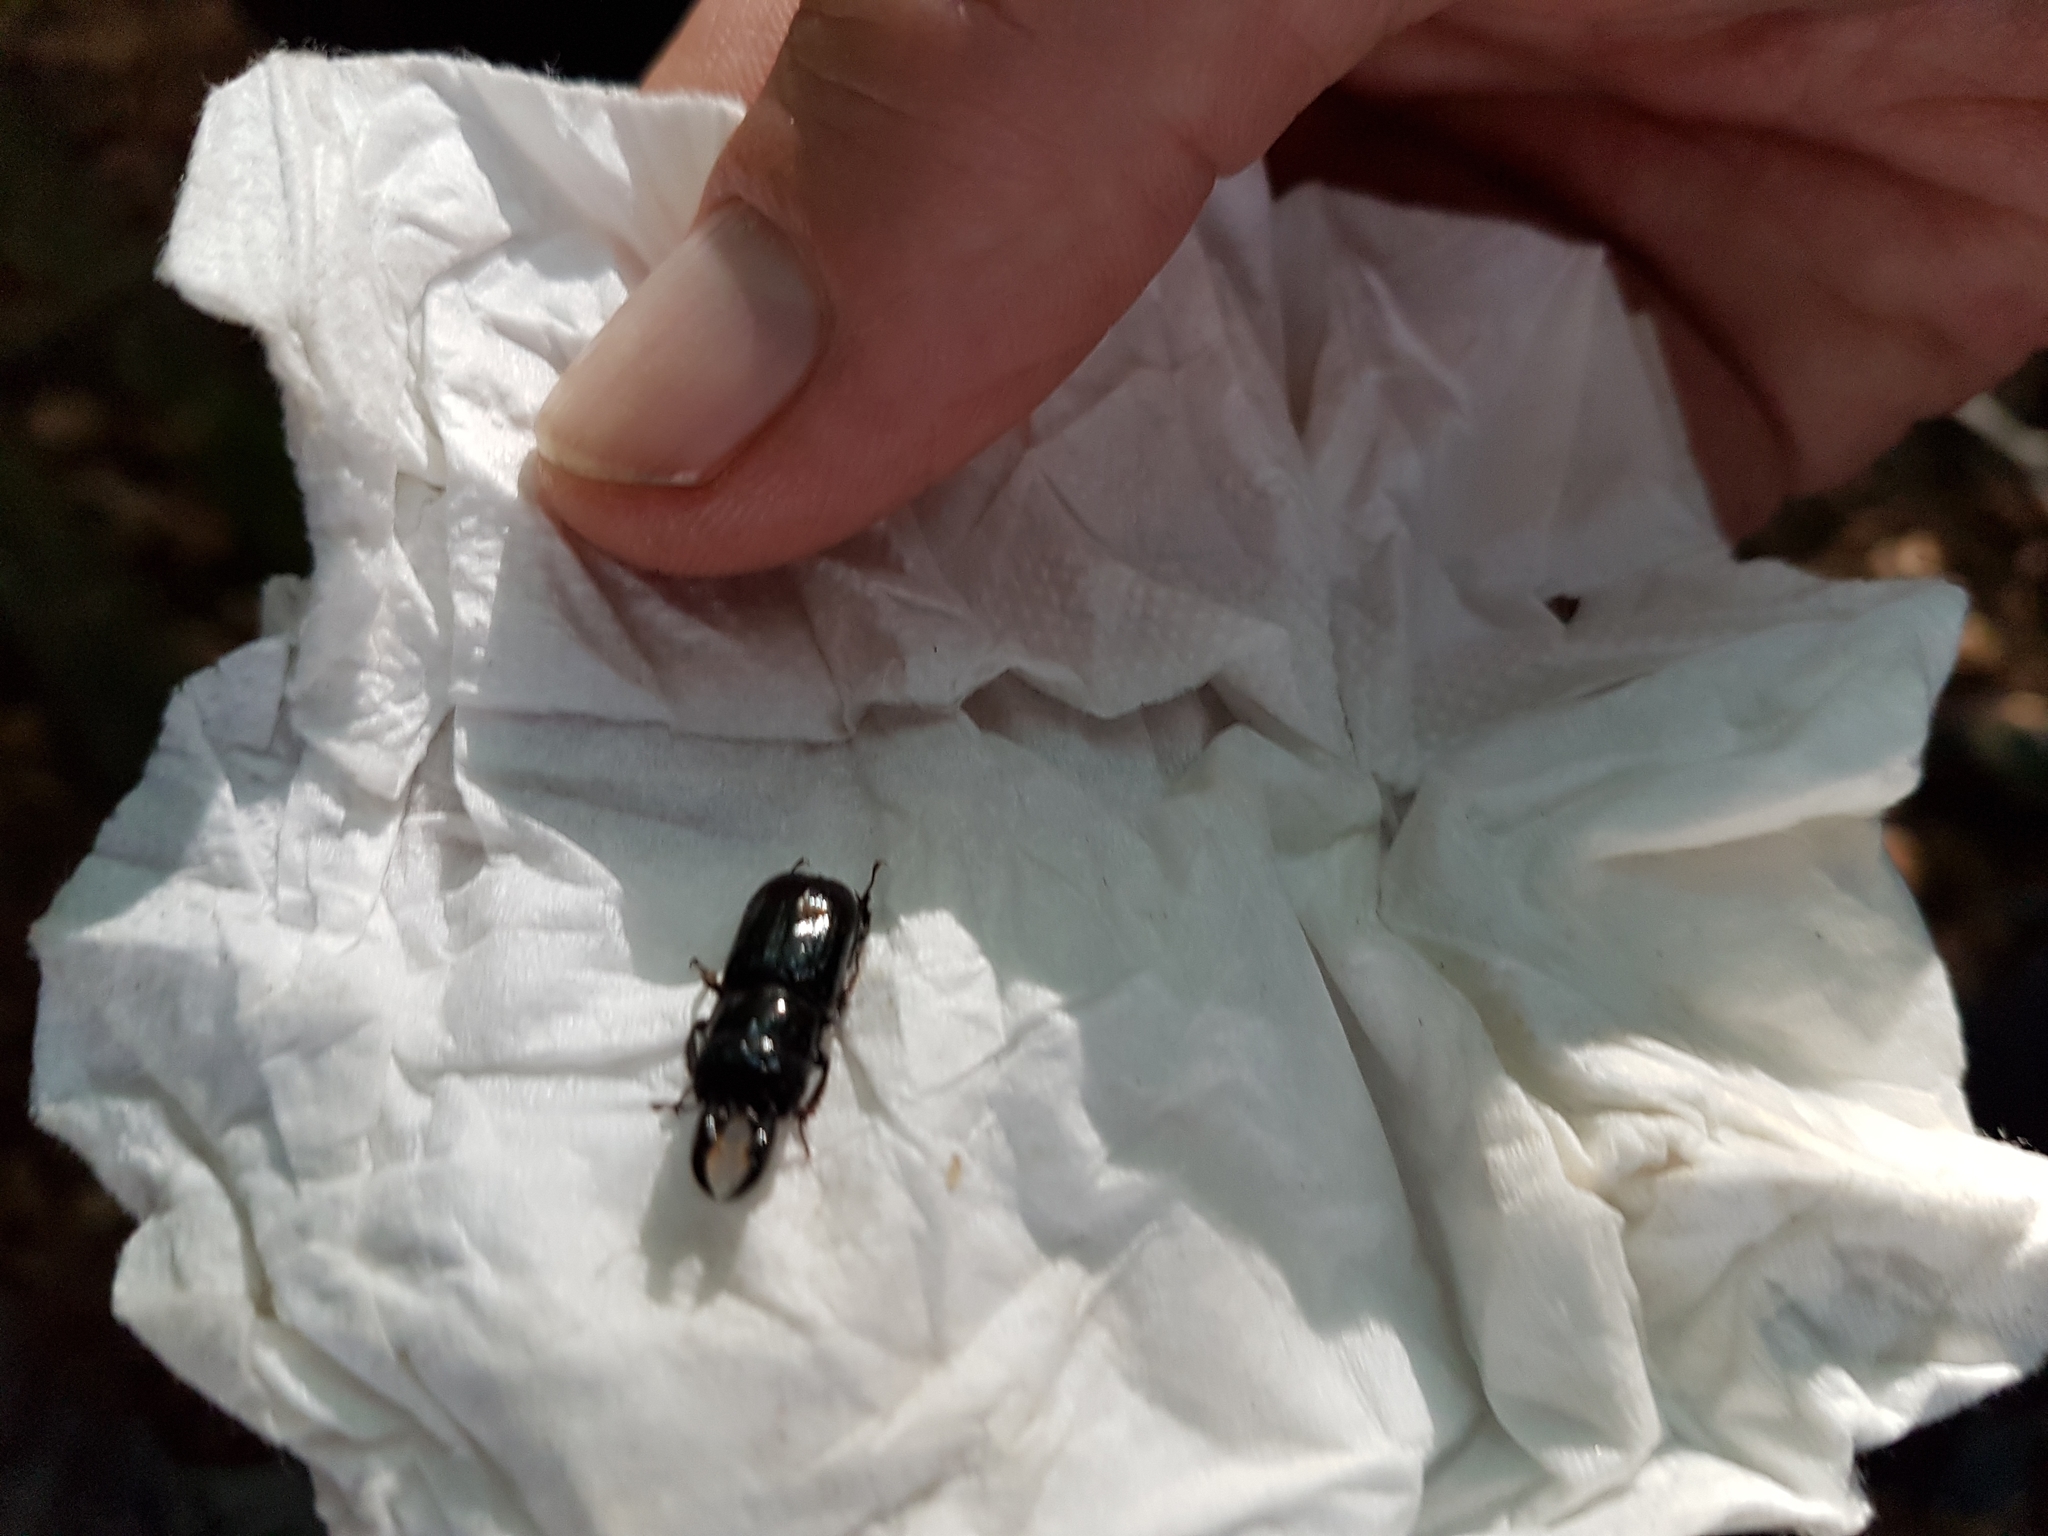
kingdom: Animalia
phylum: Arthropoda
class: Insecta
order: Coleoptera
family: Lucanidae
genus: Ceruchus
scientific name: Ceruchus chrysomelinus
